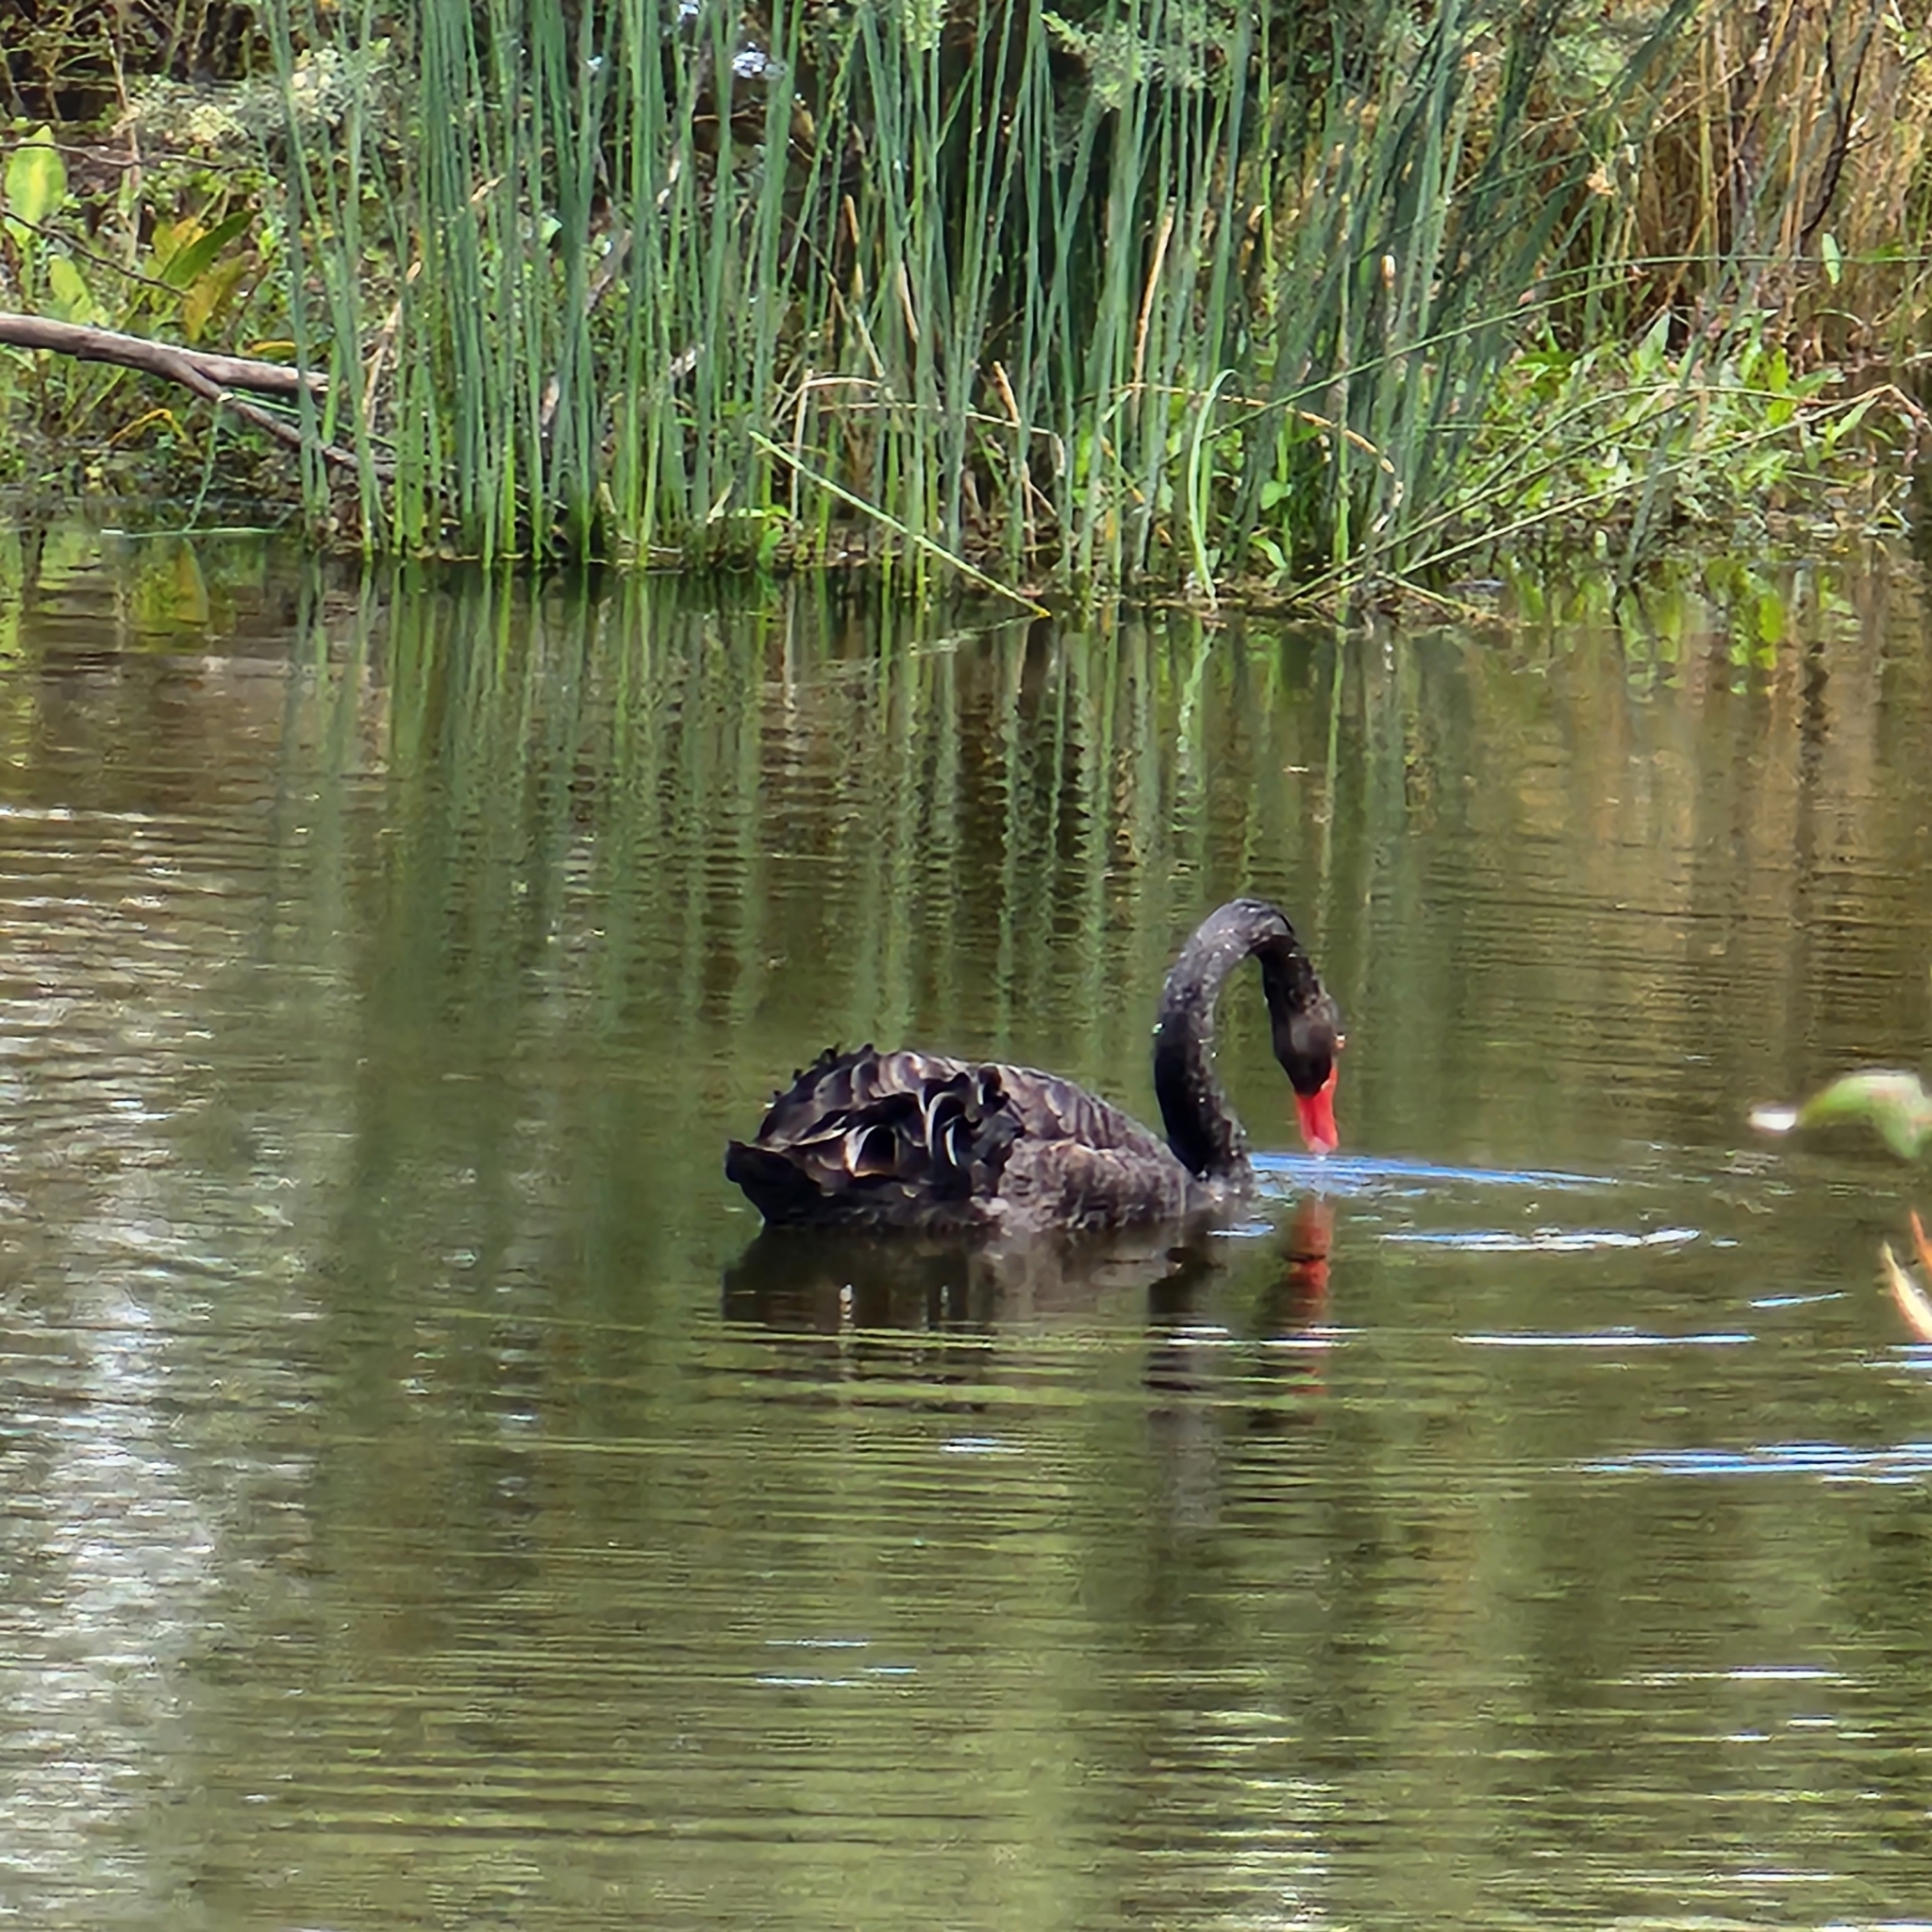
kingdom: Animalia
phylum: Chordata
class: Aves
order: Anseriformes
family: Anatidae
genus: Cygnus
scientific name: Cygnus atratus
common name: Black swan
